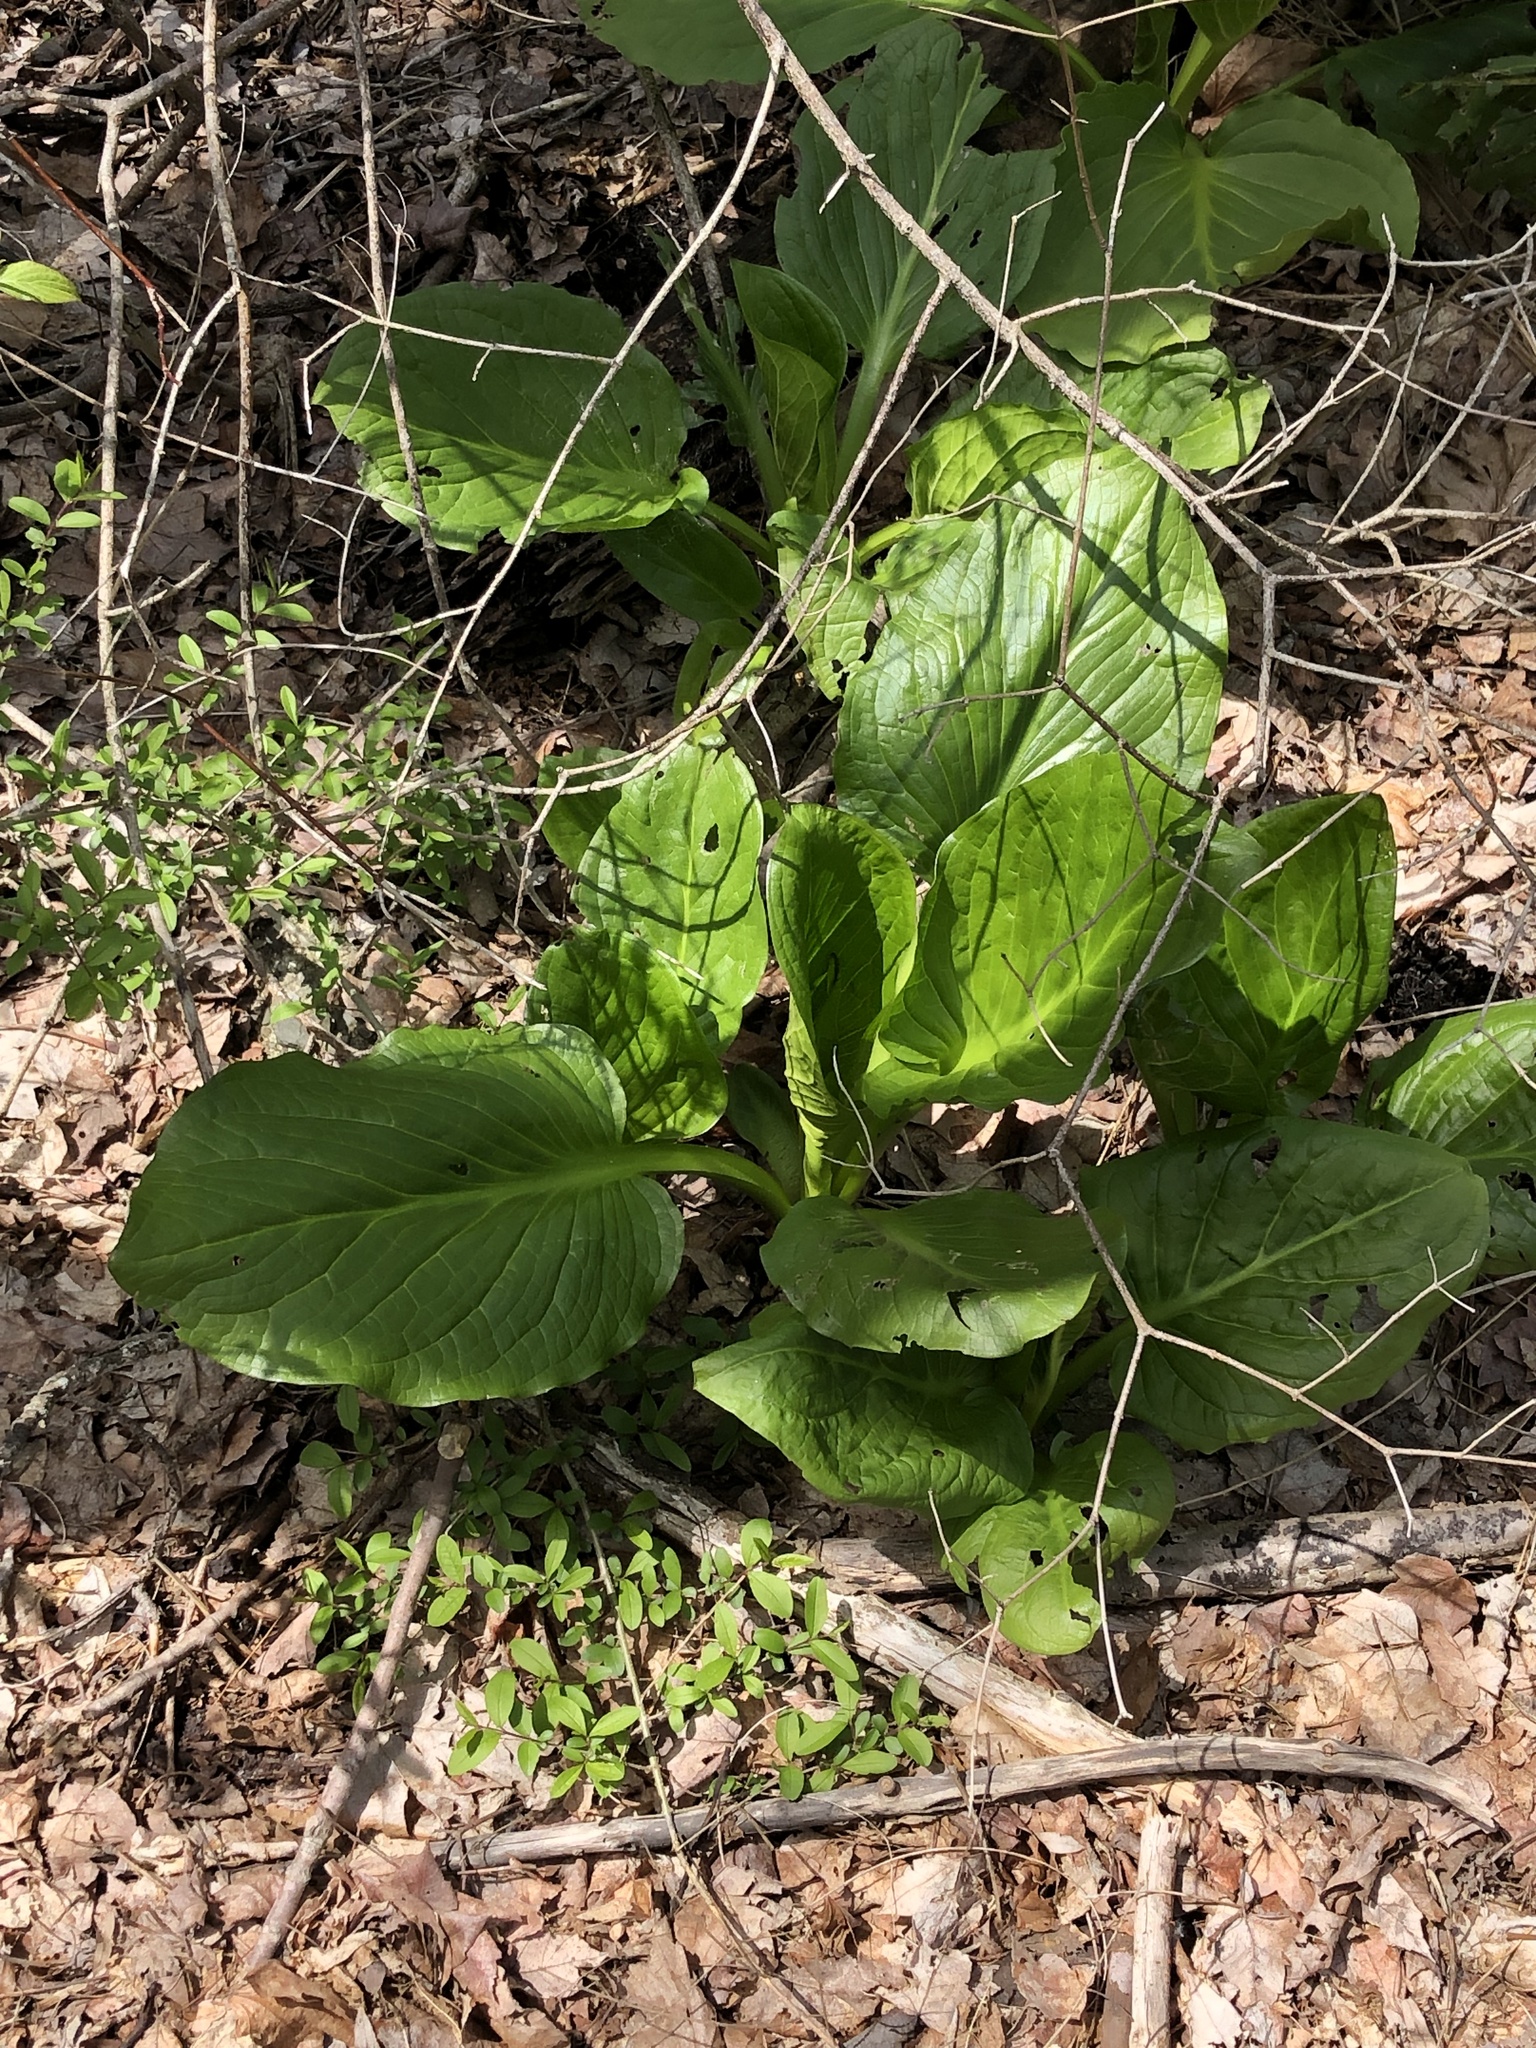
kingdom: Plantae
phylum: Tracheophyta
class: Liliopsida
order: Alismatales
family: Araceae
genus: Symplocarpus
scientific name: Symplocarpus foetidus
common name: Eastern skunk cabbage
